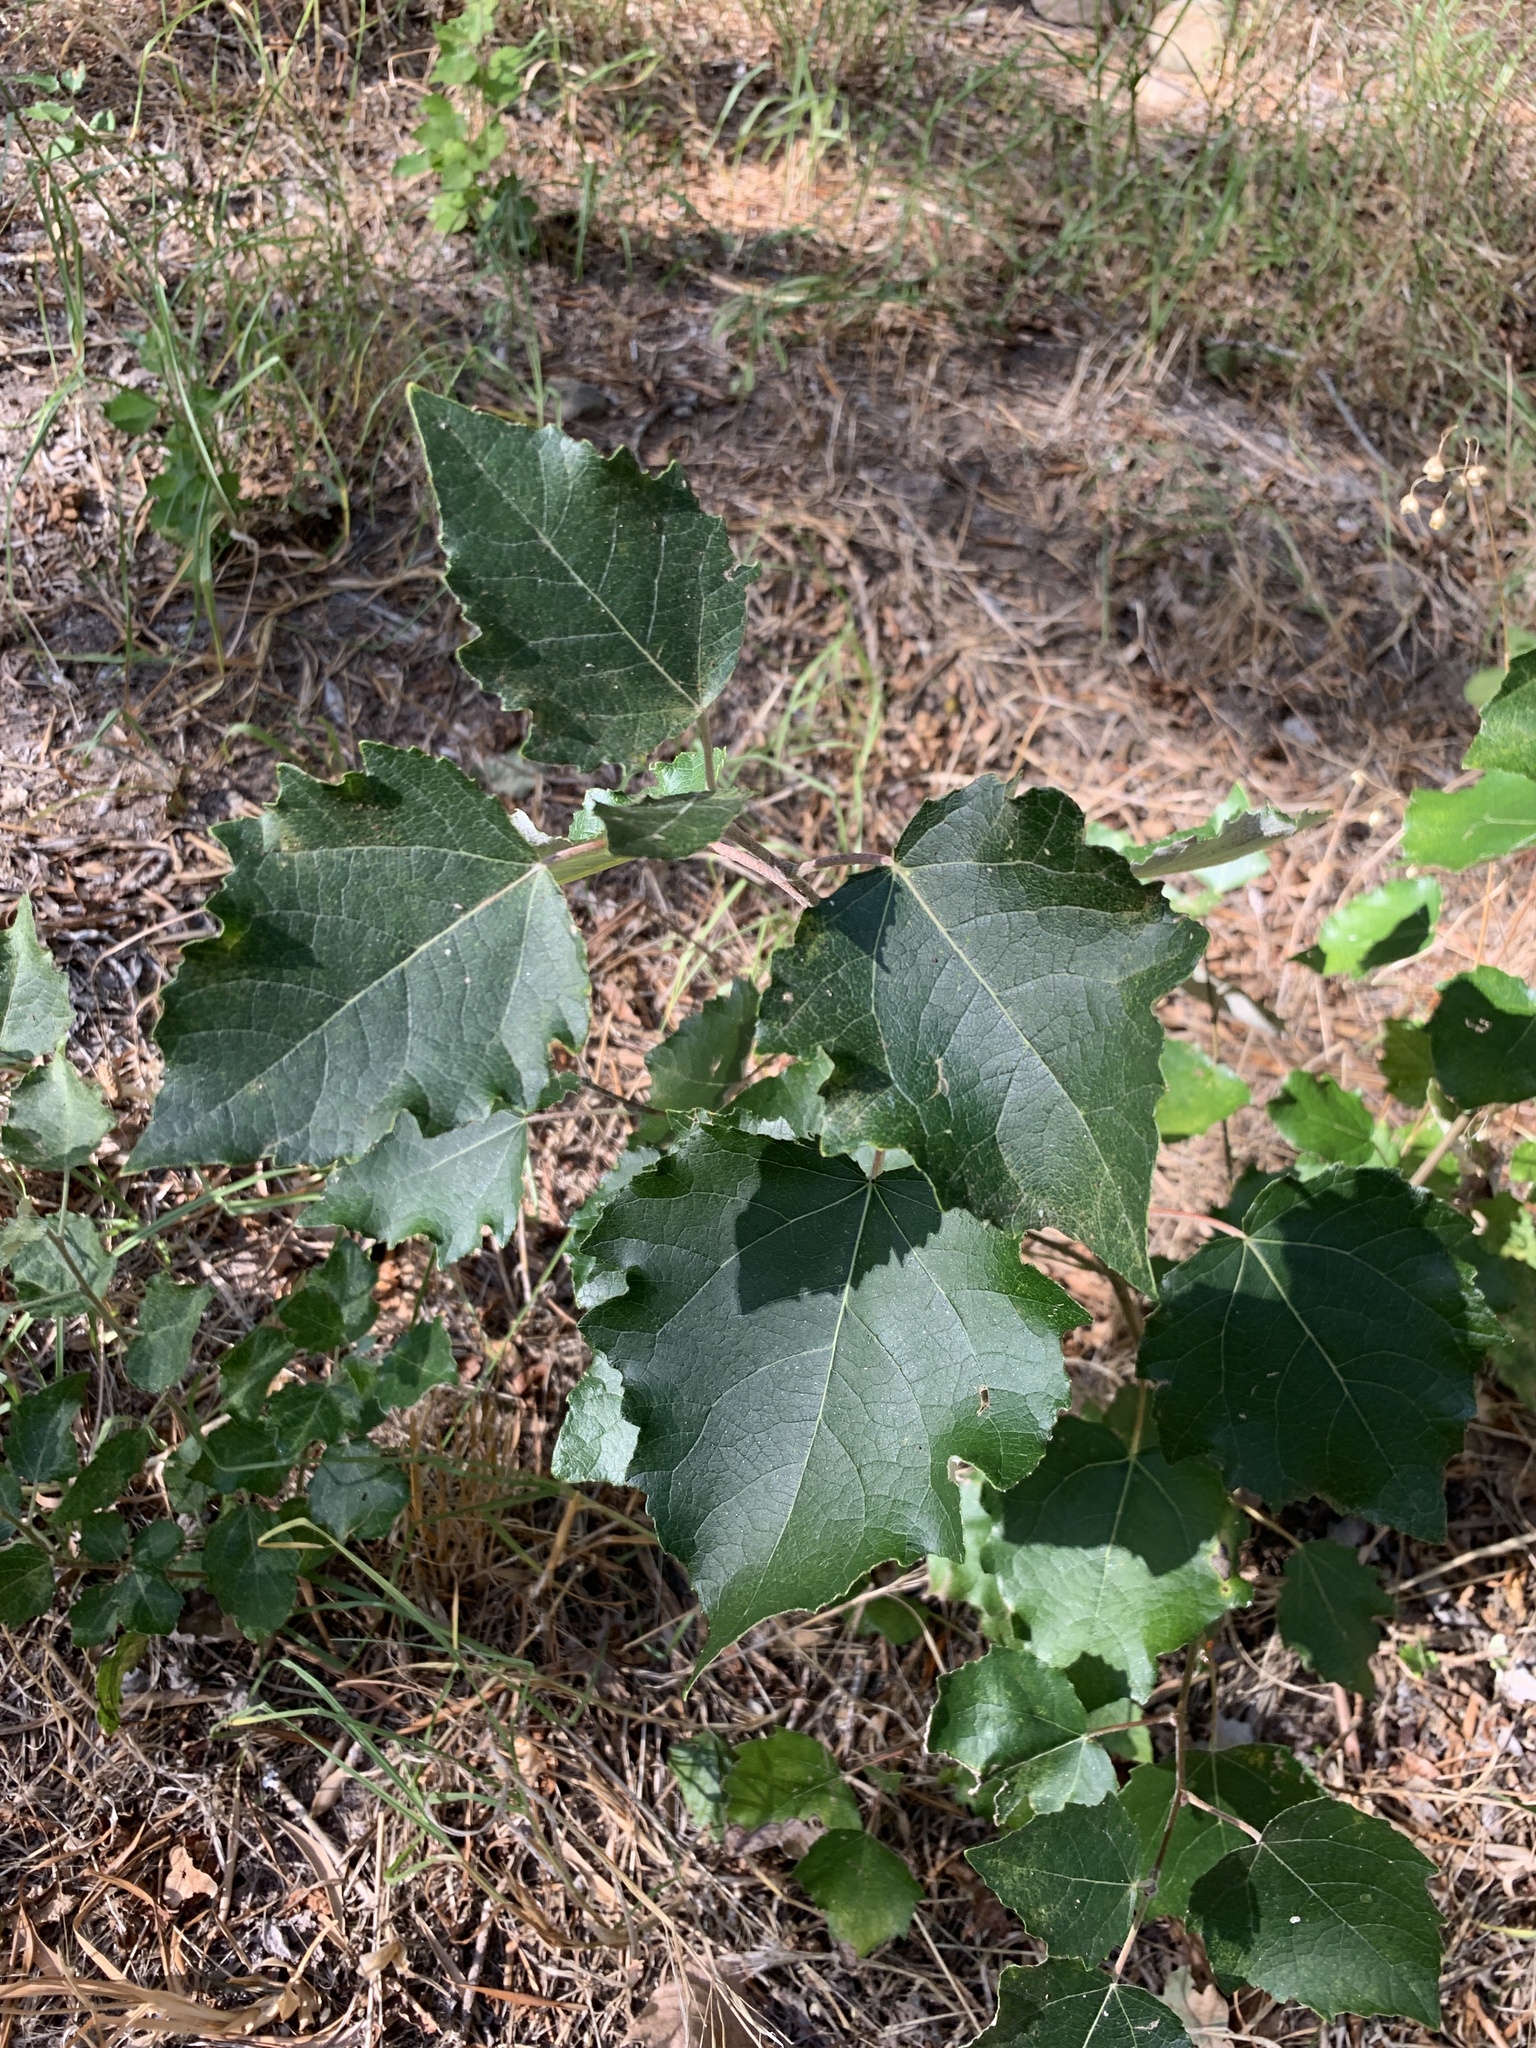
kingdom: Plantae
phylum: Tracheophyta
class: Magnoliopsida
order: Malpighiales
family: Salicaceae
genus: Populus
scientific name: Populus canescens
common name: Gray poplar
